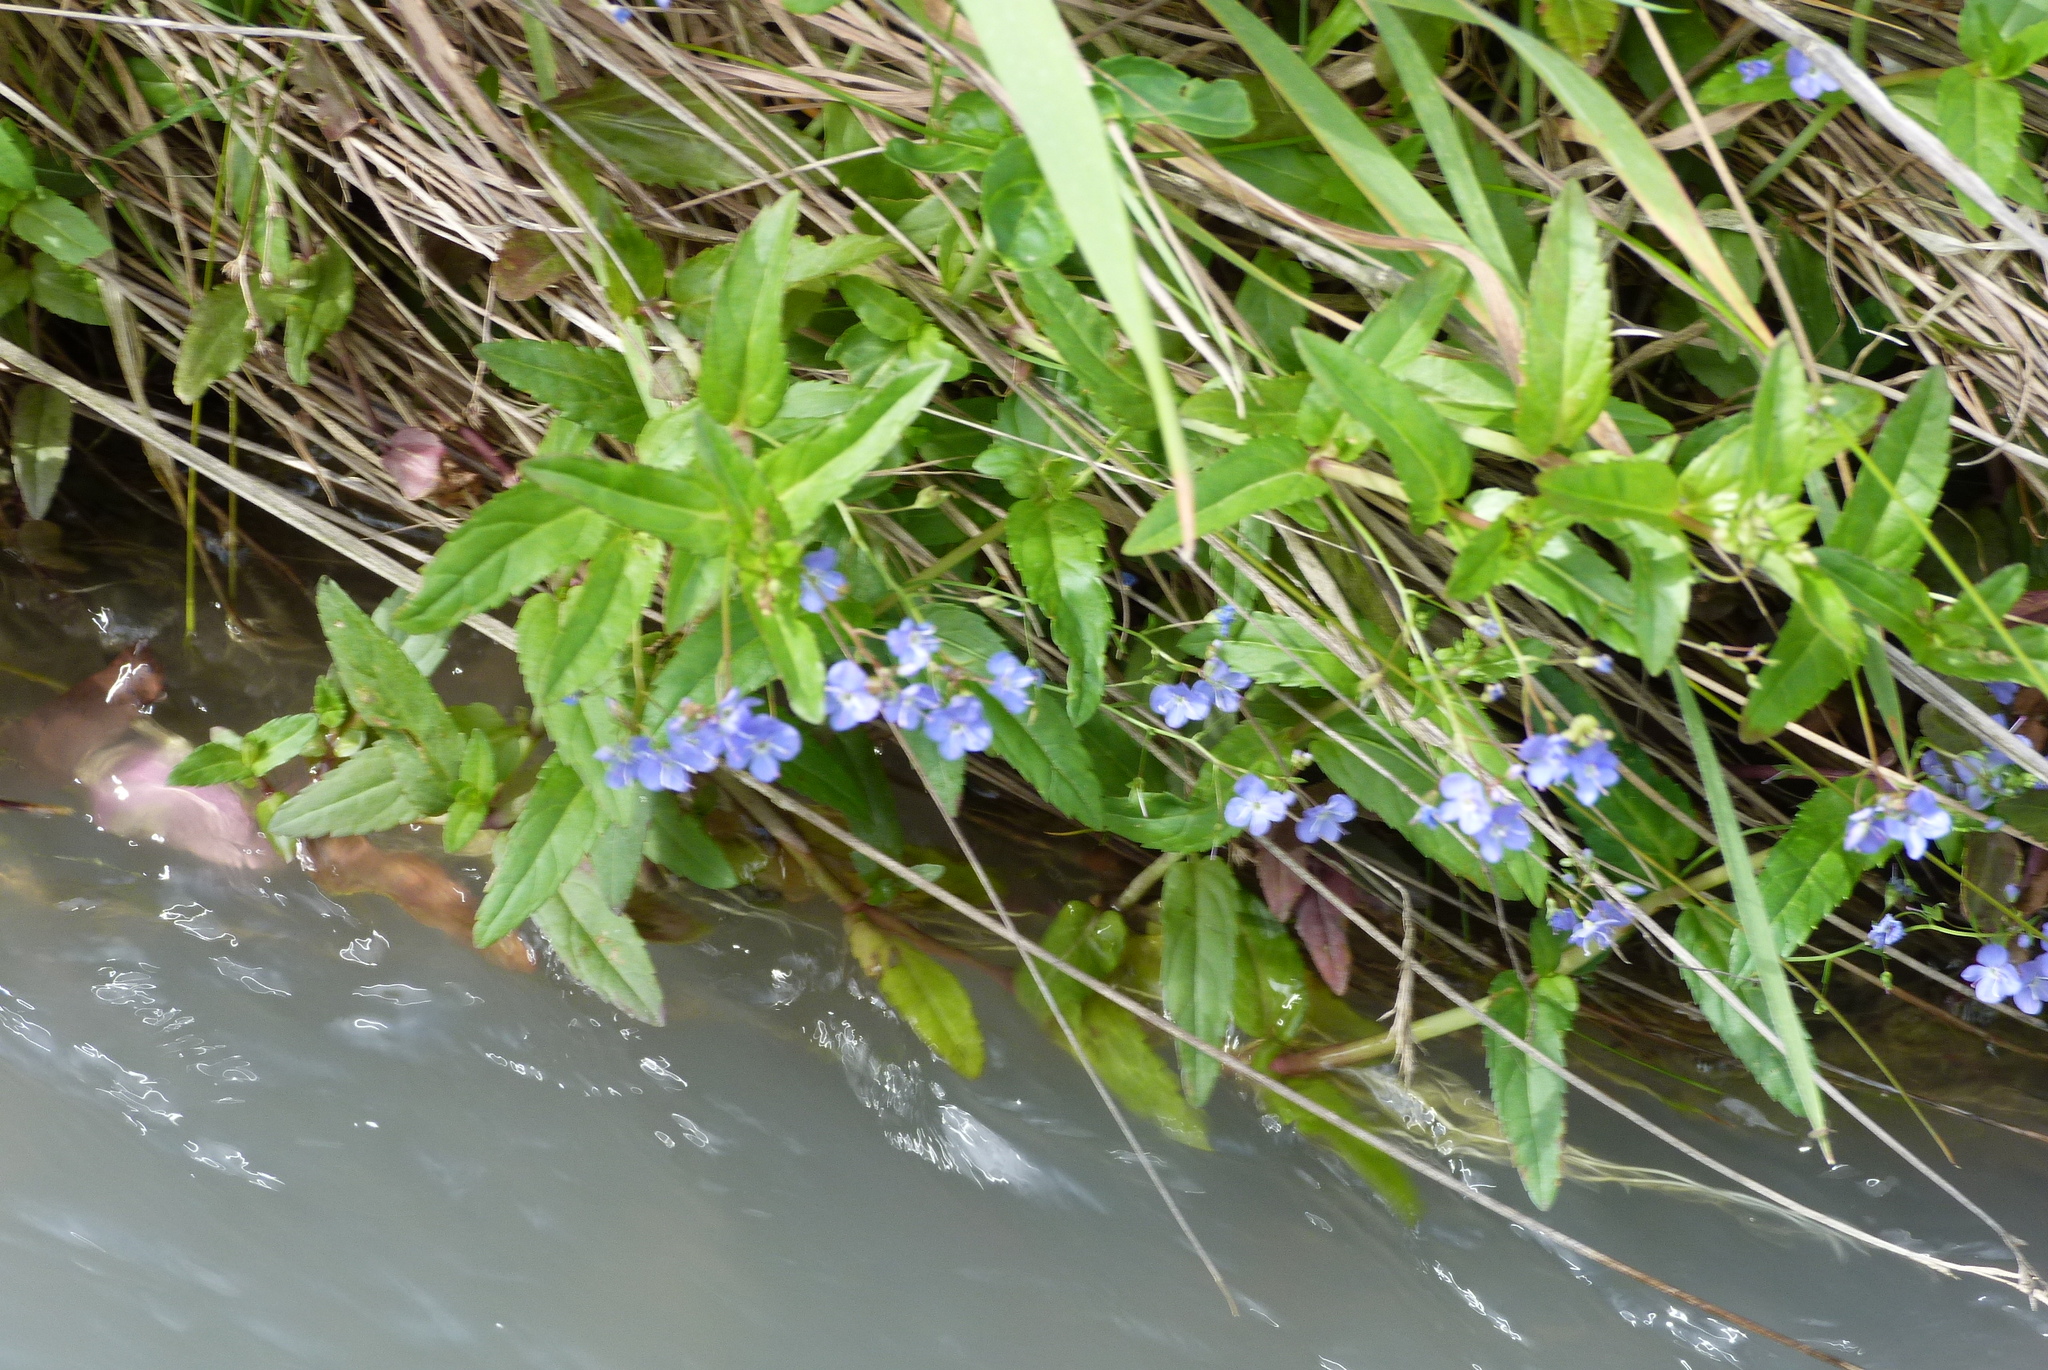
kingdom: Plantae
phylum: Tracheophyta
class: Magnoliopsida
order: Lamiales
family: Plantaginaceae
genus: Veronica
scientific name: Veronica anagallis-aquatica
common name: Water speedwell
